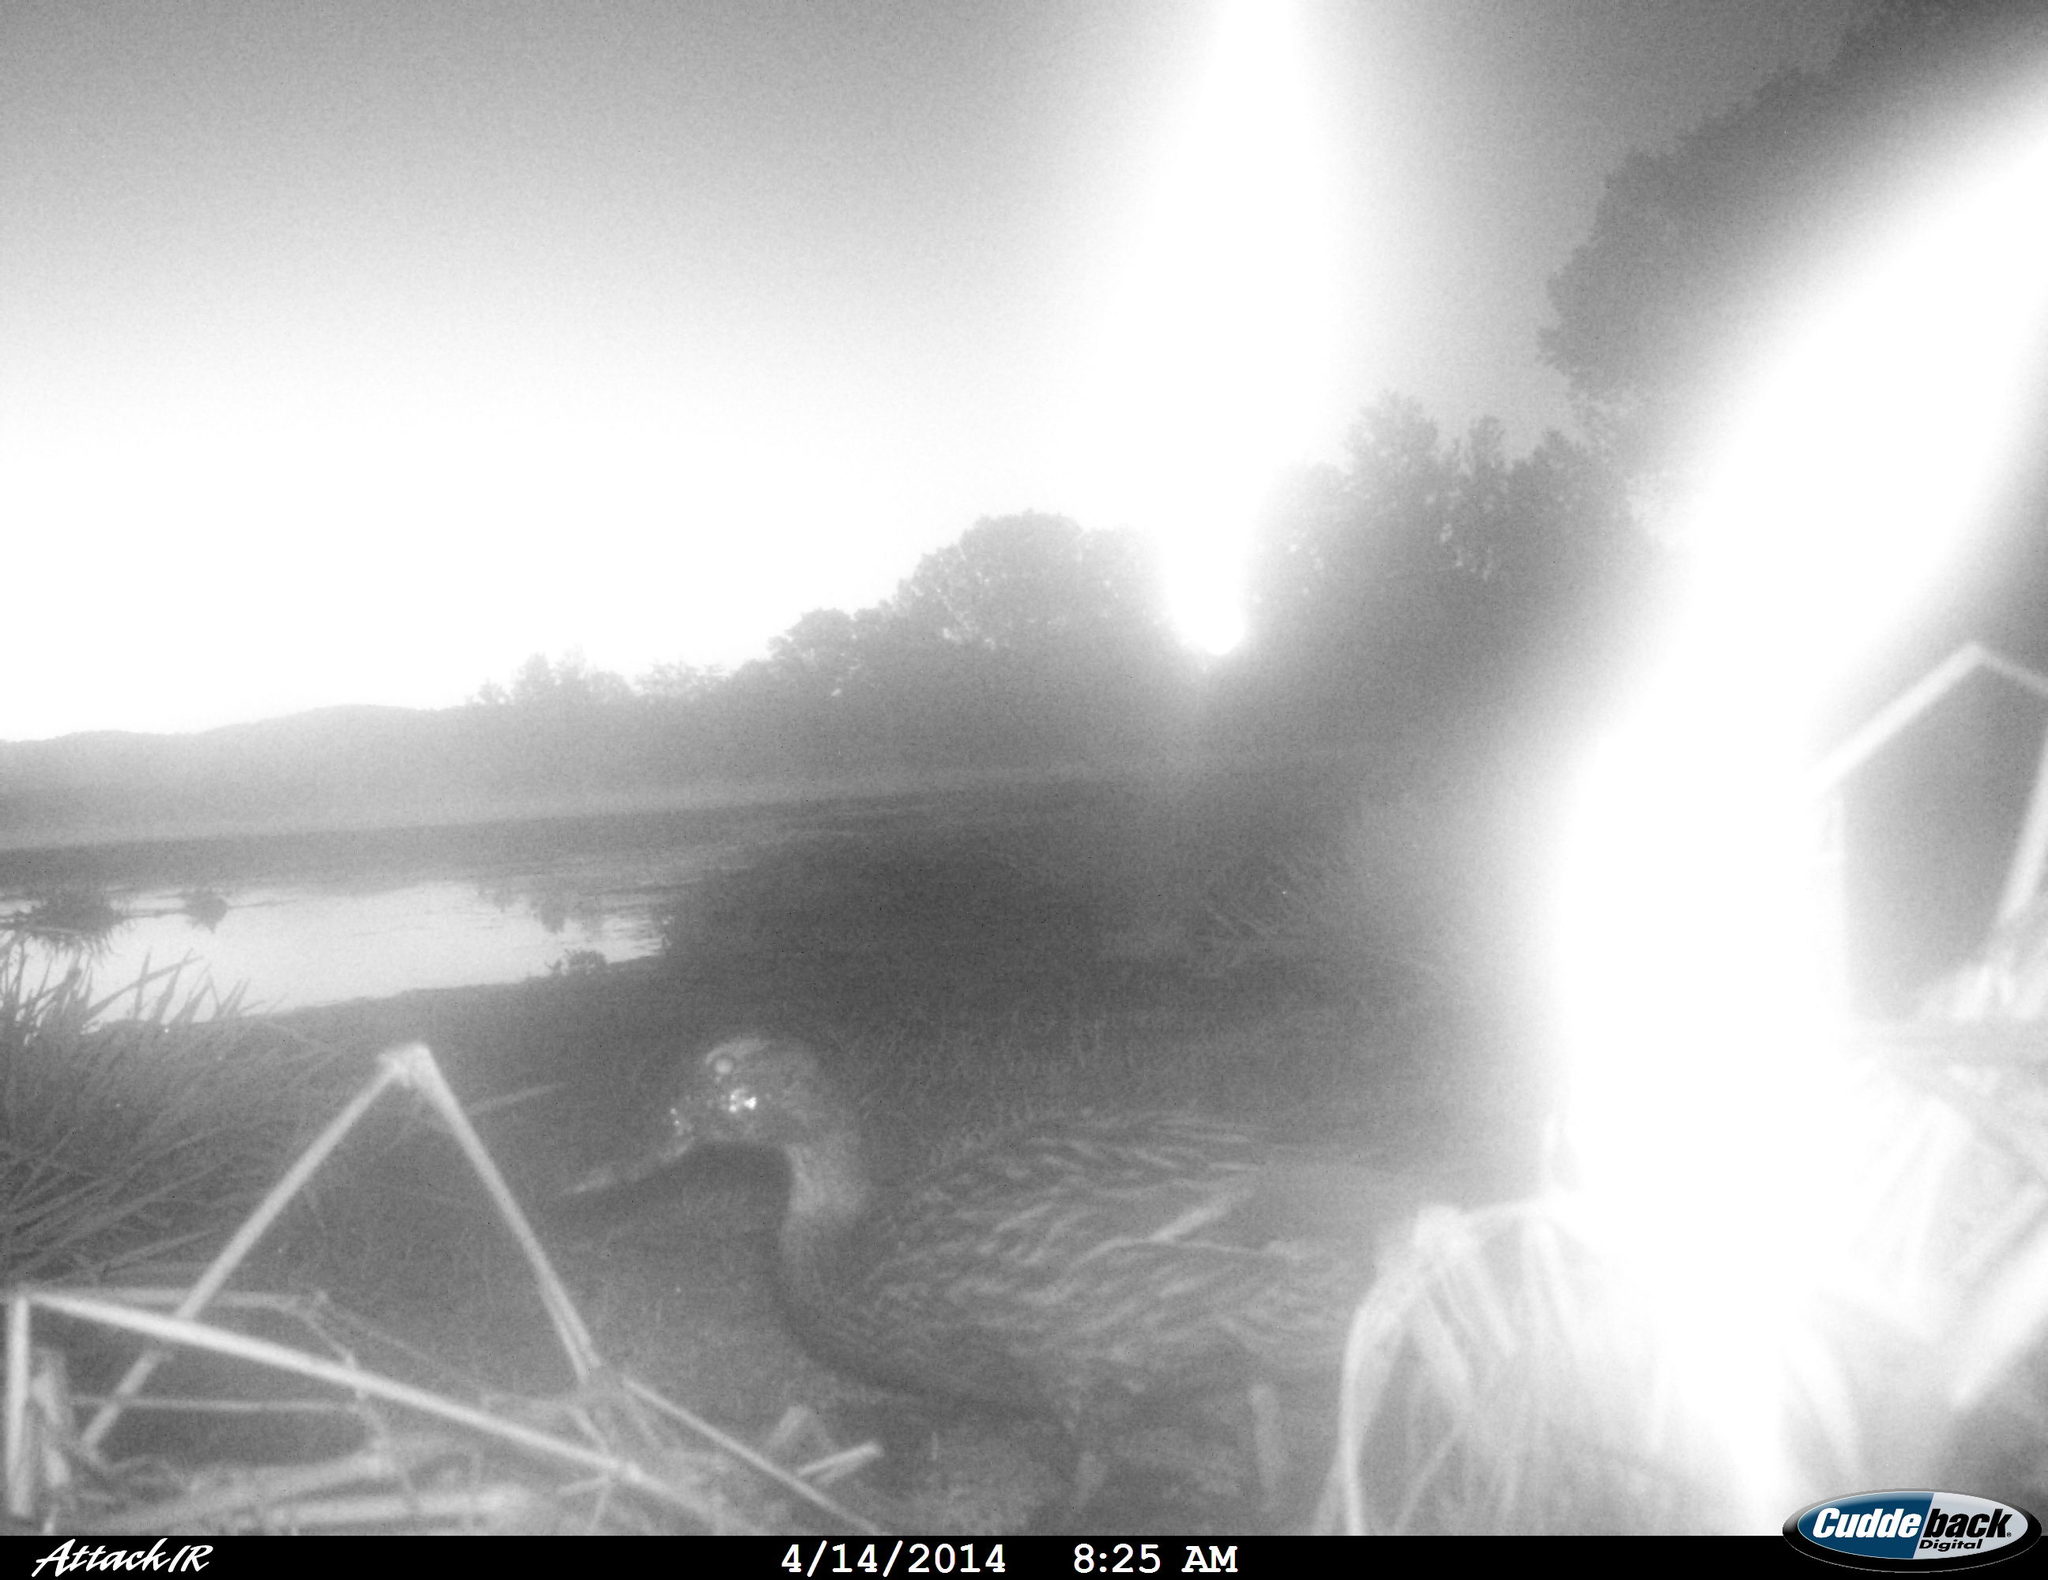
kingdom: Animalia
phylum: Chordata
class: Aves
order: Anseriformes
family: Anatidae
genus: Anas
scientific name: Anas platyrhynchos
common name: Mallard
